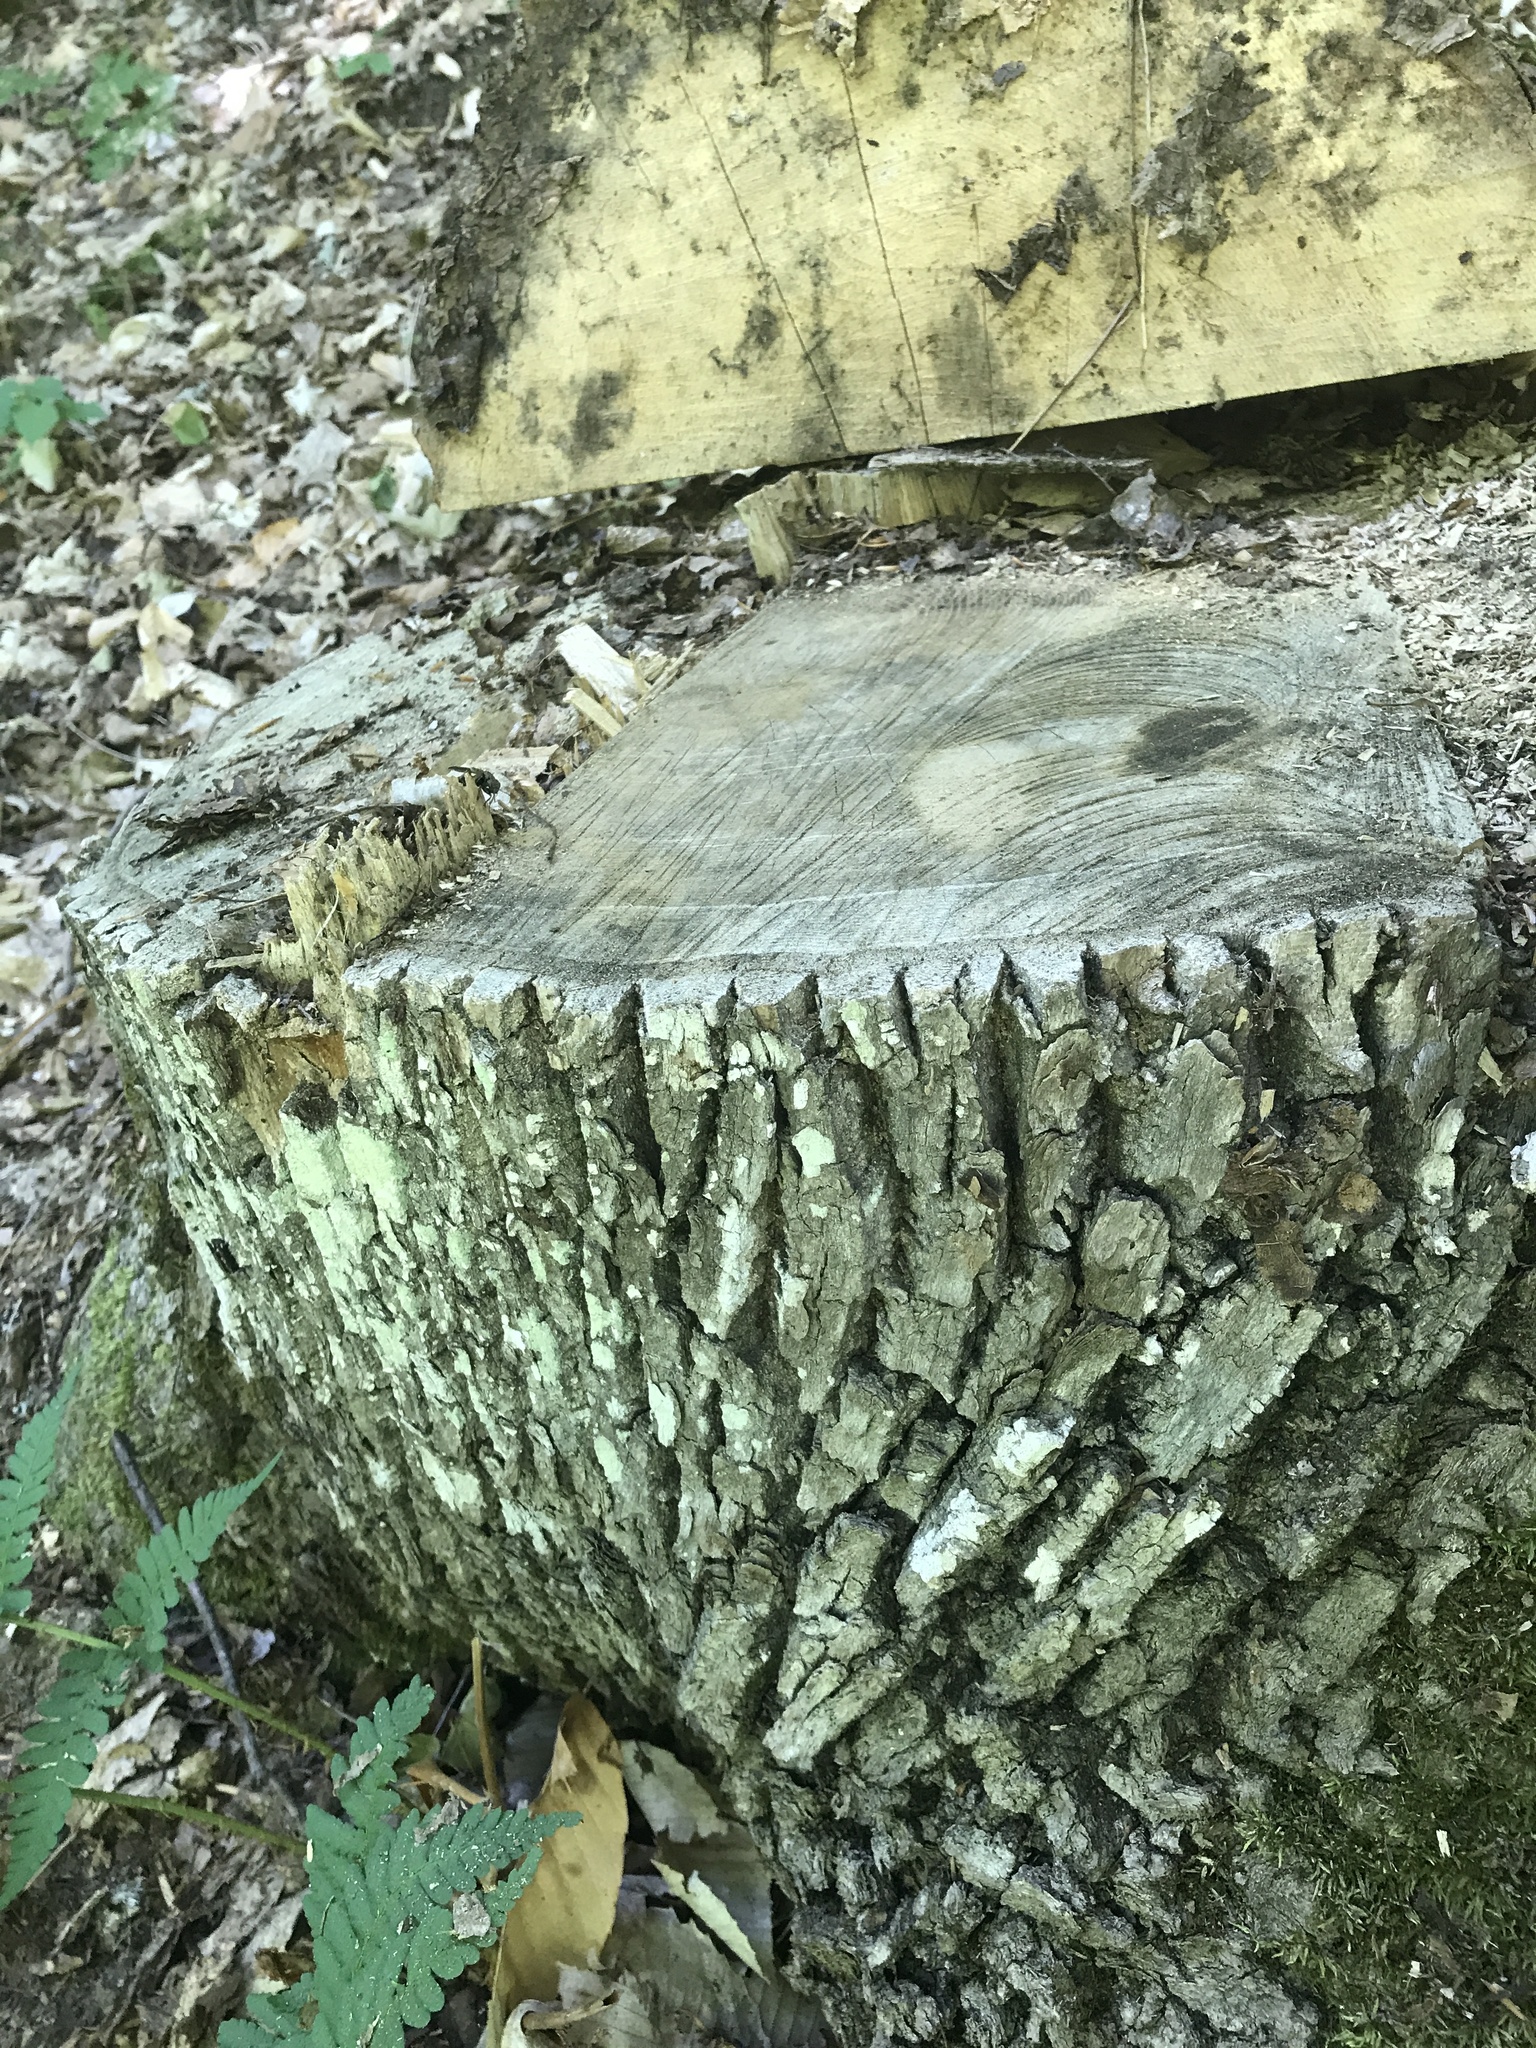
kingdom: Plantae
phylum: Tracheophyta
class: Magnoliopsida
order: Lamiales
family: Oleaceae
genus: Fraxinus
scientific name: Fraxinus americana
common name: White ash
